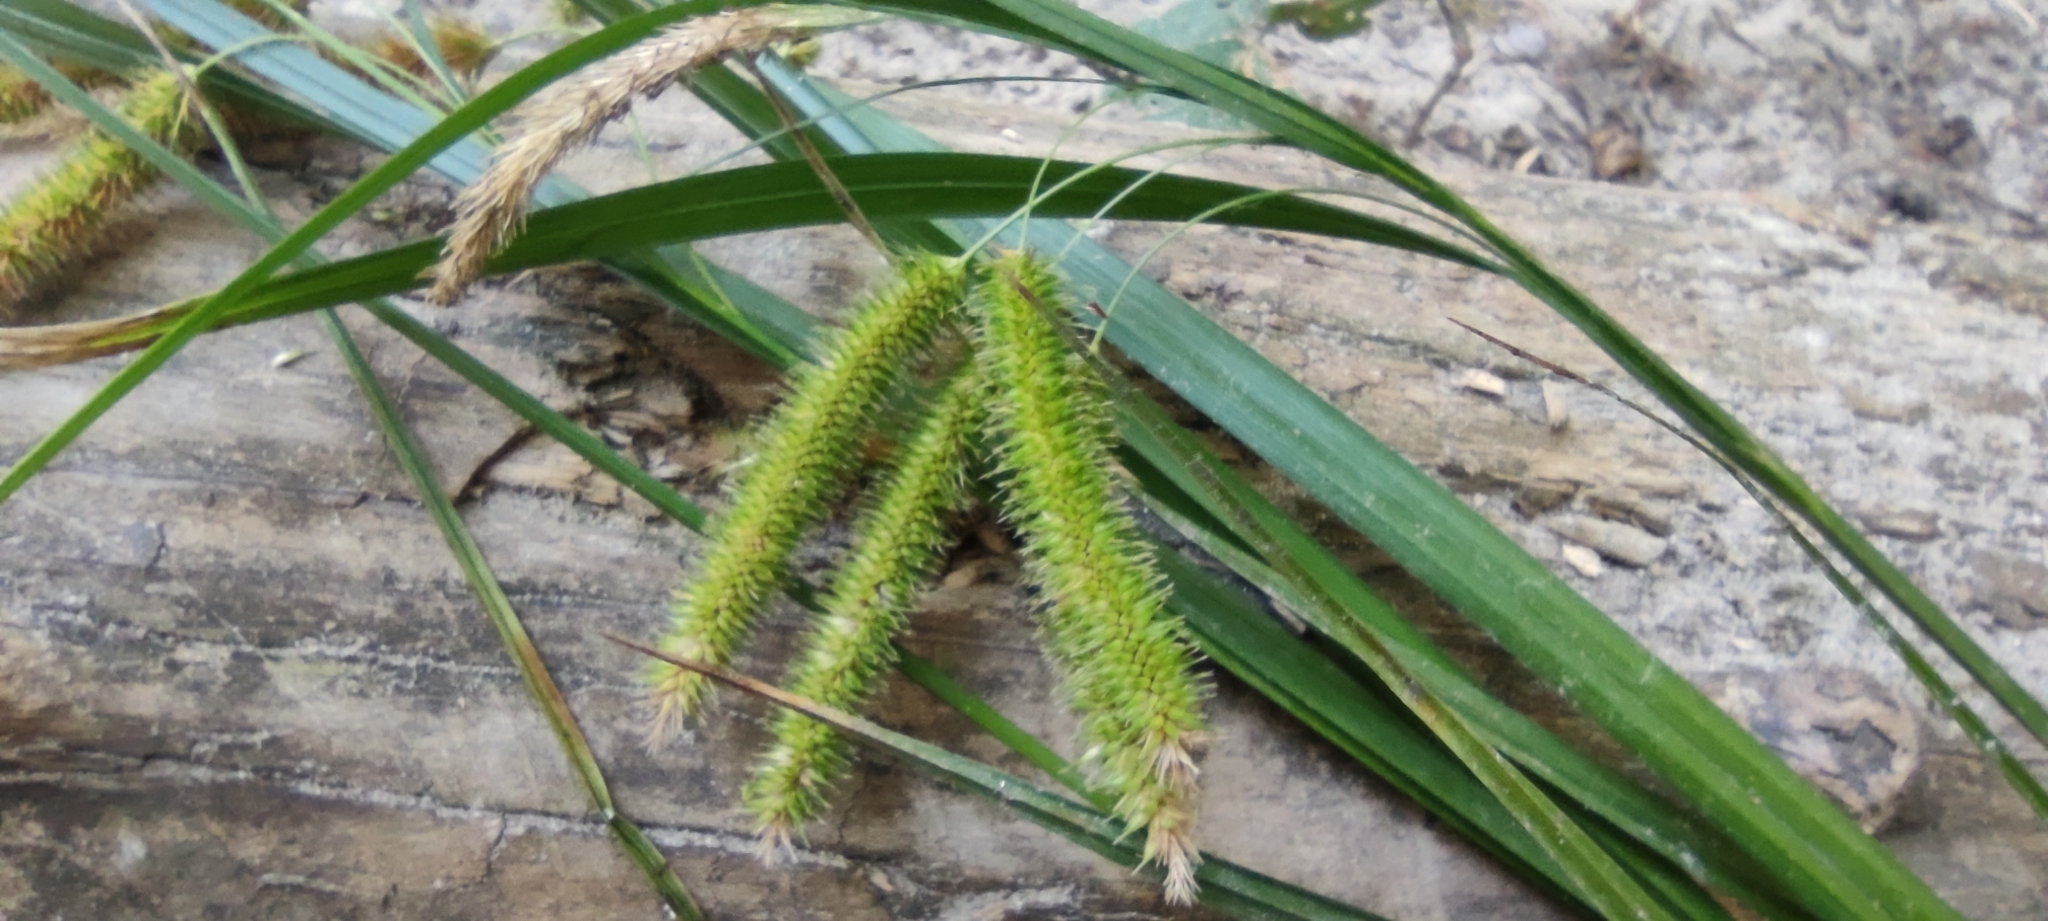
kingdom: Plantae
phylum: Tracheophyta
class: Liliopsida
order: Poales
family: Cyperaceae
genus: Carex
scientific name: Carex pseudocyperus
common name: Cyperus sedge
